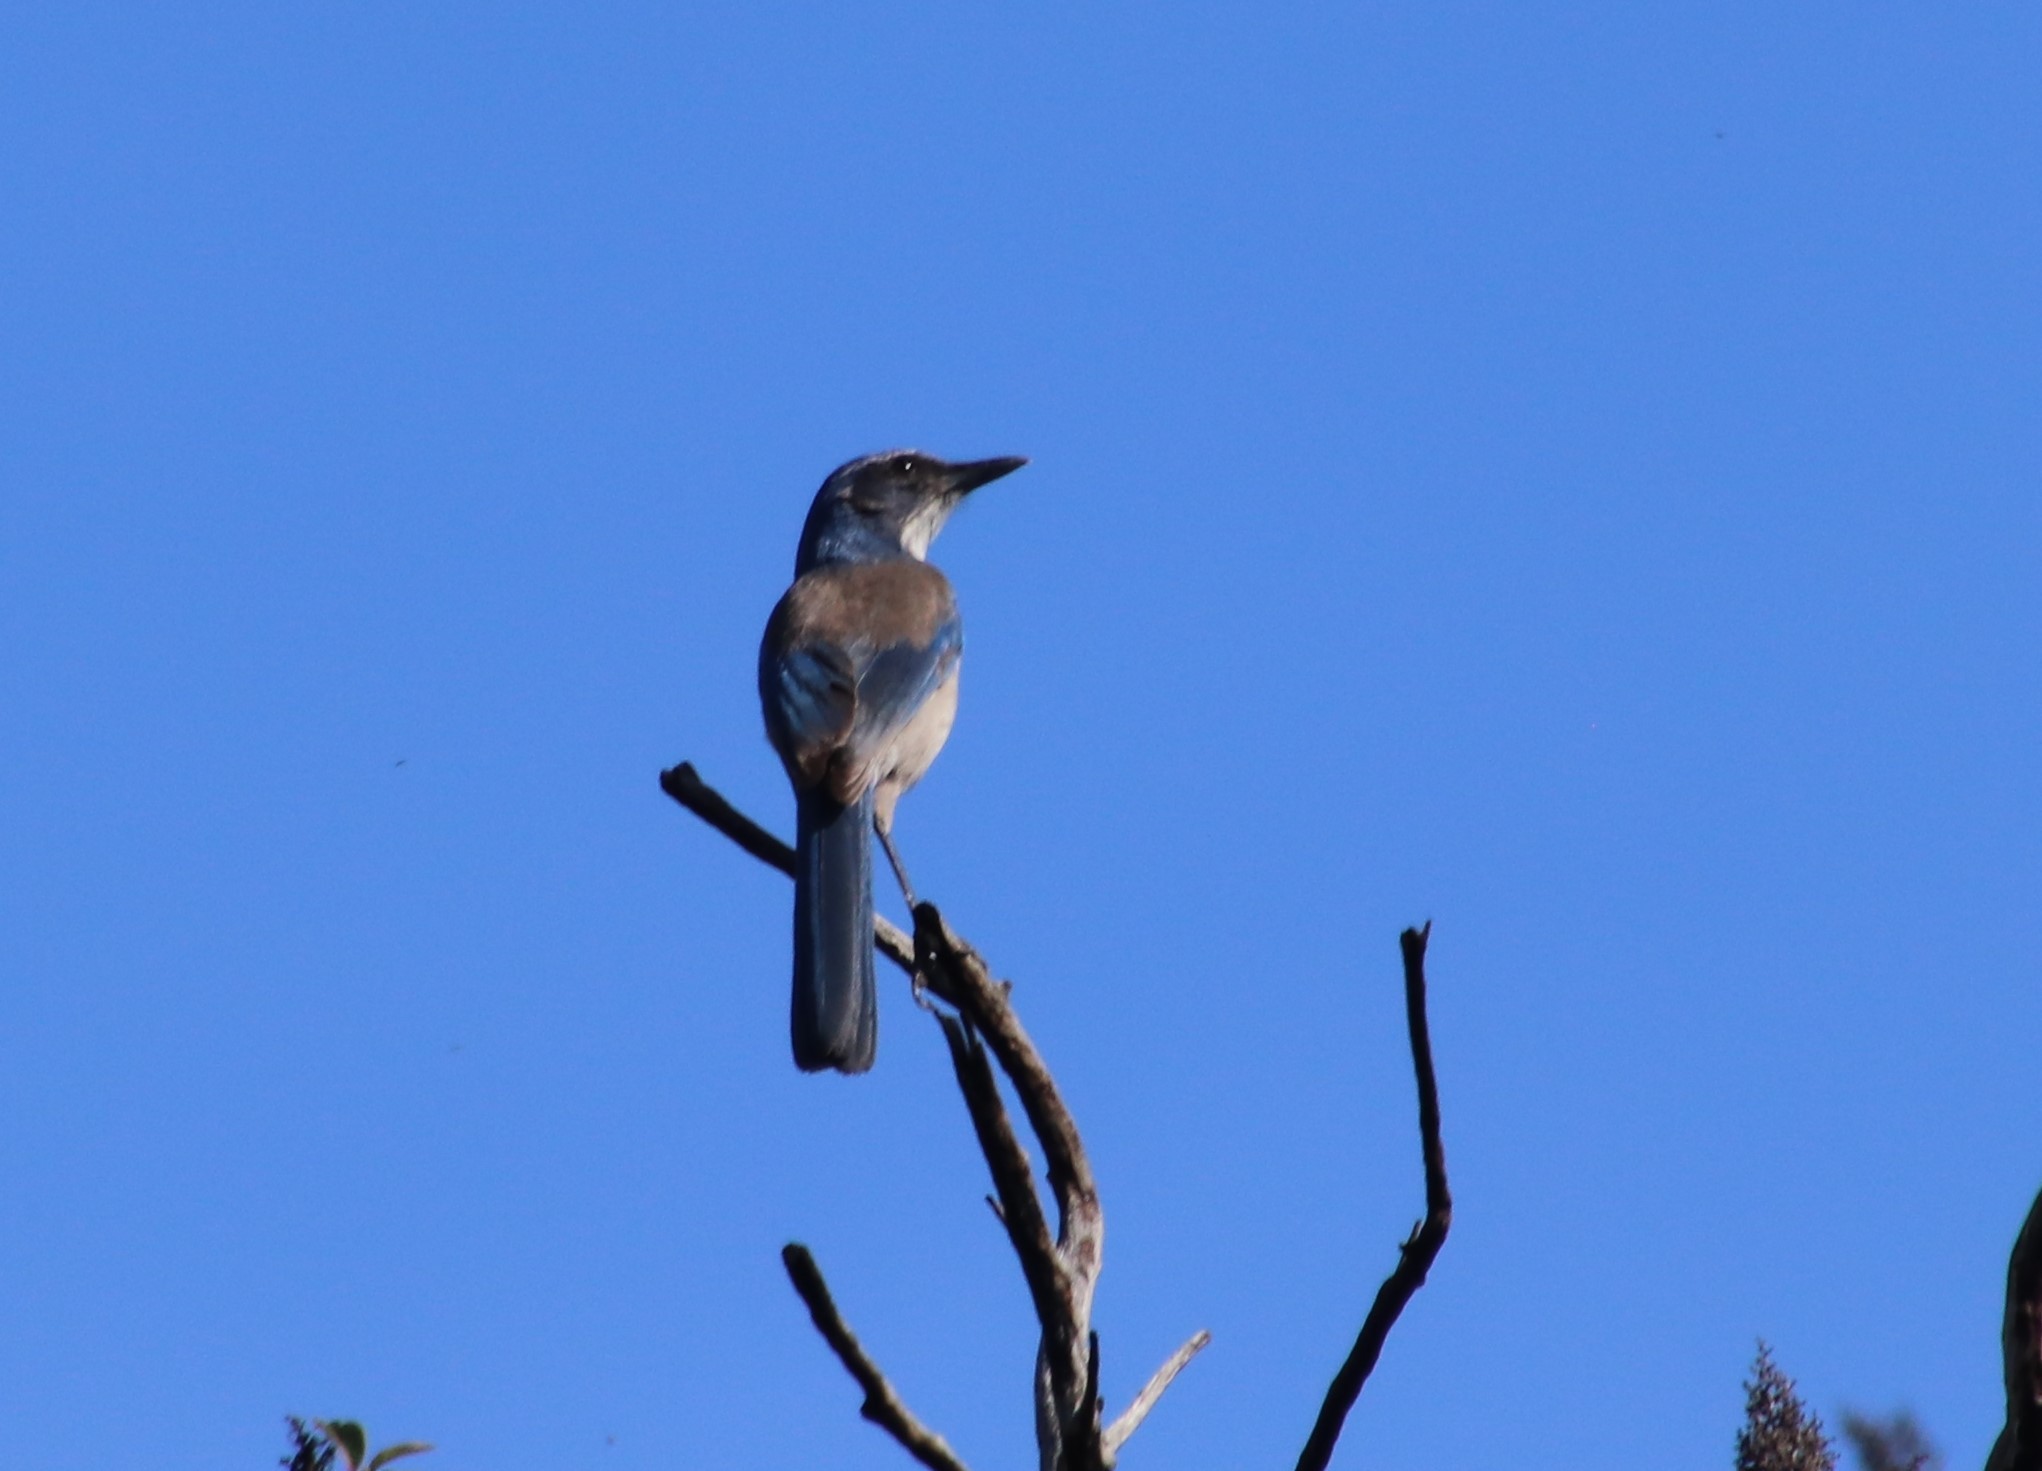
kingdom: Animalia
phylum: Chordata
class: Aves
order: Passeriformes
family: Corvidae
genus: Aphelocoma
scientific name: Aphelocoma californica
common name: California scrub-jay
